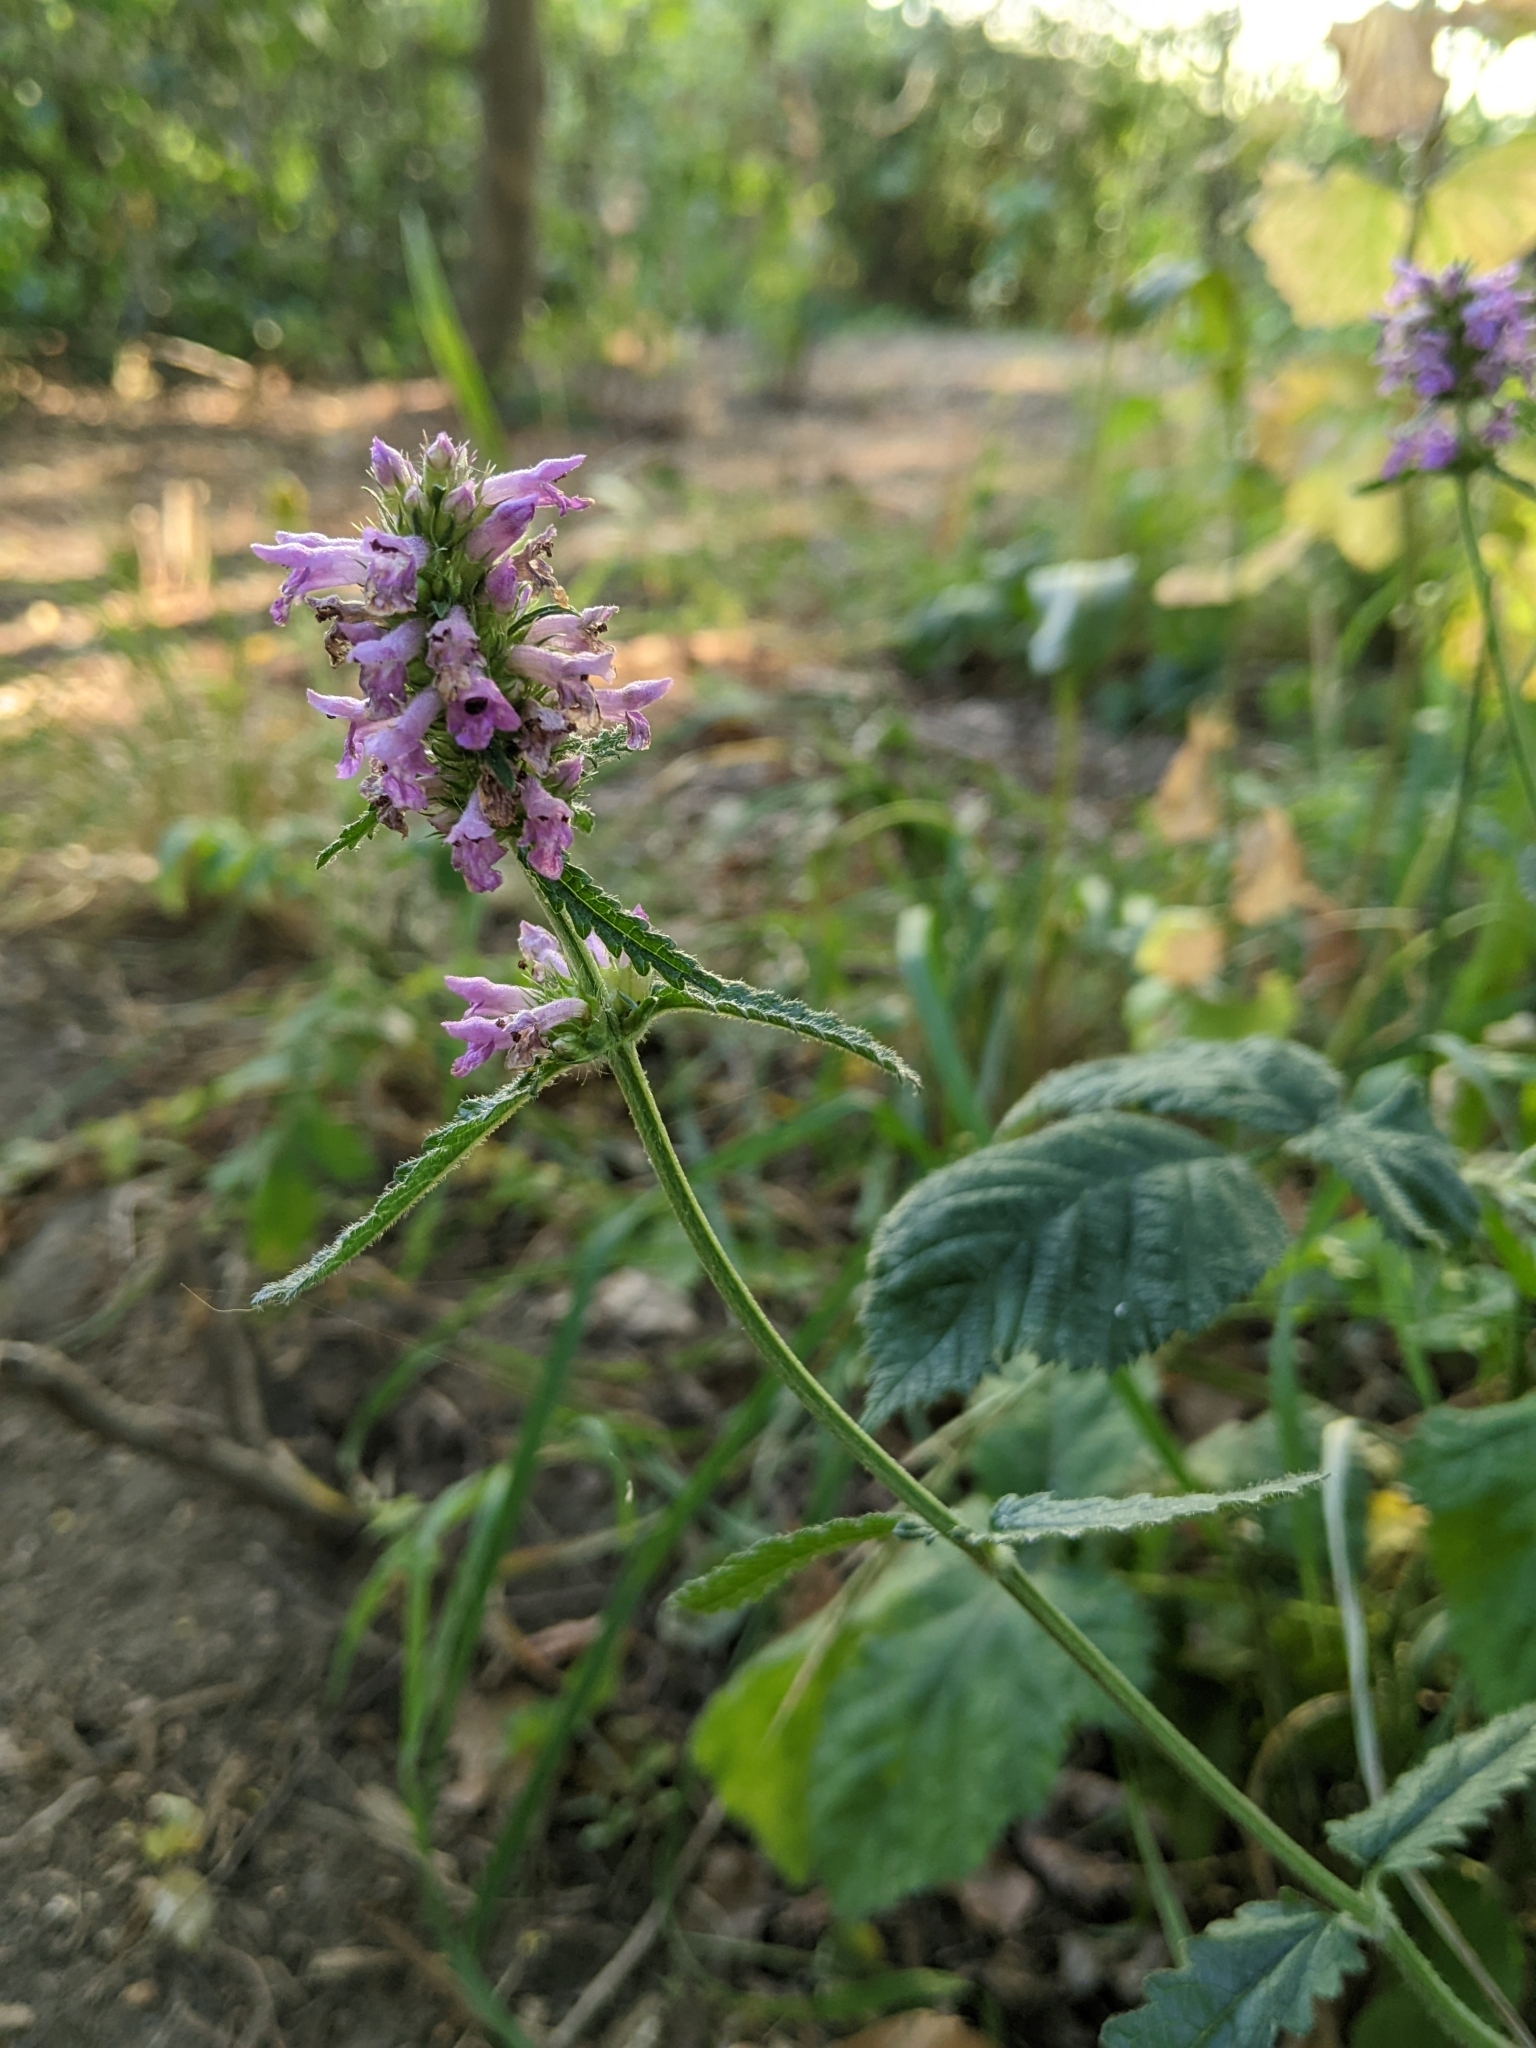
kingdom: Plantae
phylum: Tracheophyta
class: Magnoliopsida
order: Lamiales
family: Lamiaceae
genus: Betonica
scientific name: Betonica officinalis
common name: Bishop's-wort
